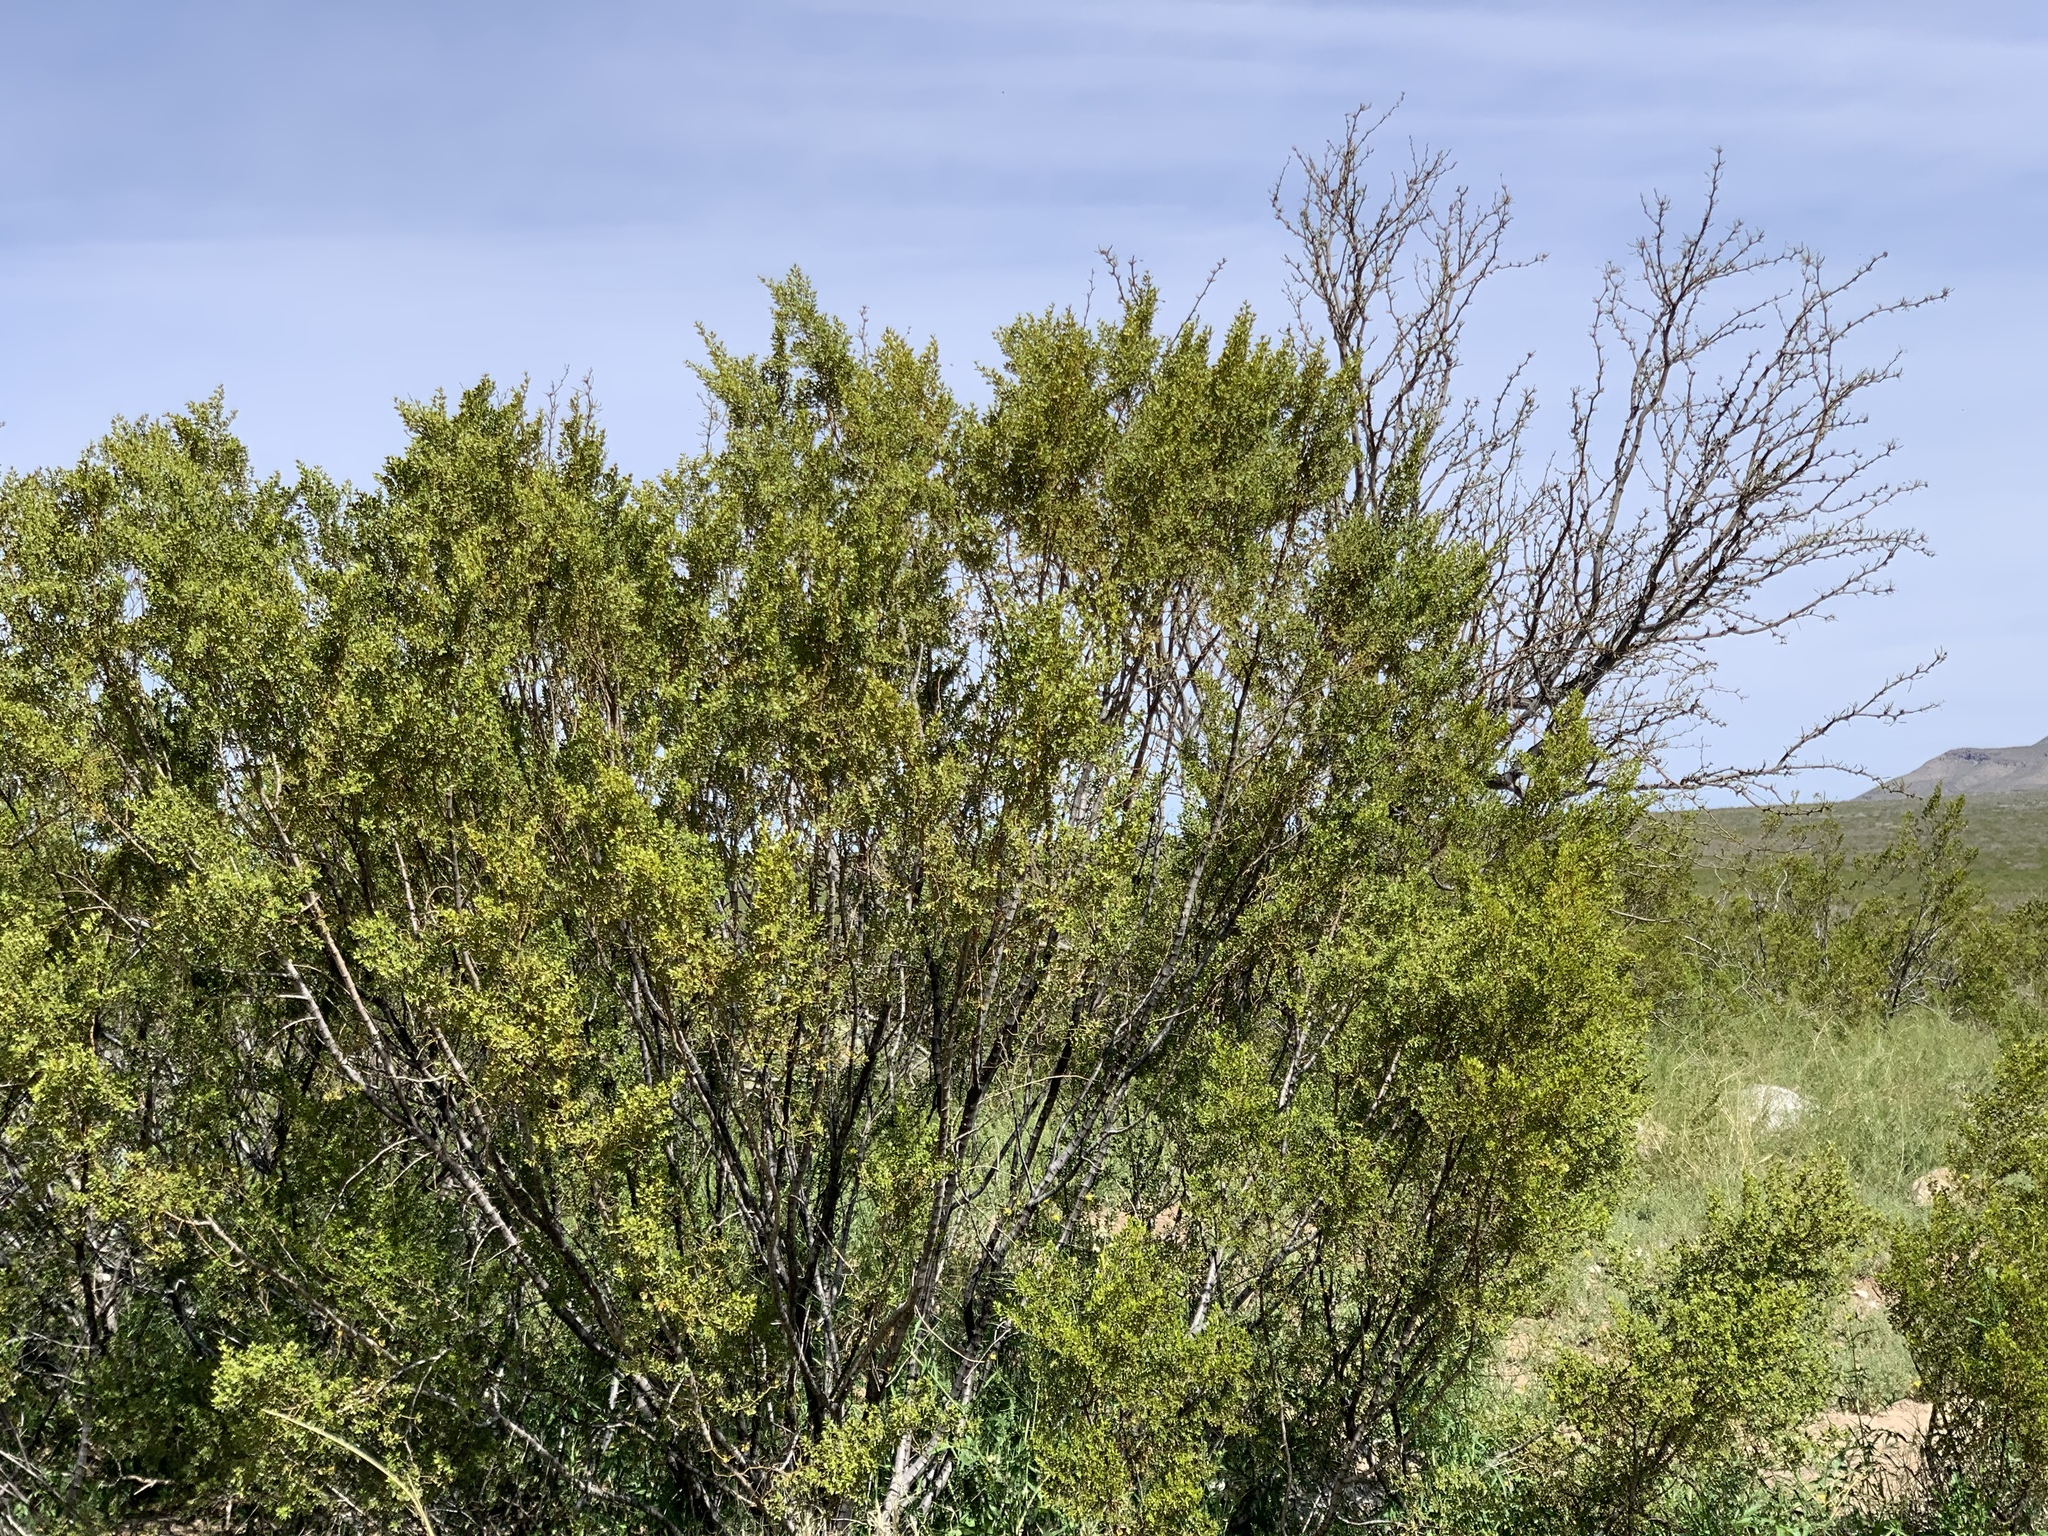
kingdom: Plantae
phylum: Tracheophyta
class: Magnoliopsida
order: Zygophyllales
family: Zygophyllaceae
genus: Larrea
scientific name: Larrea tridentata
